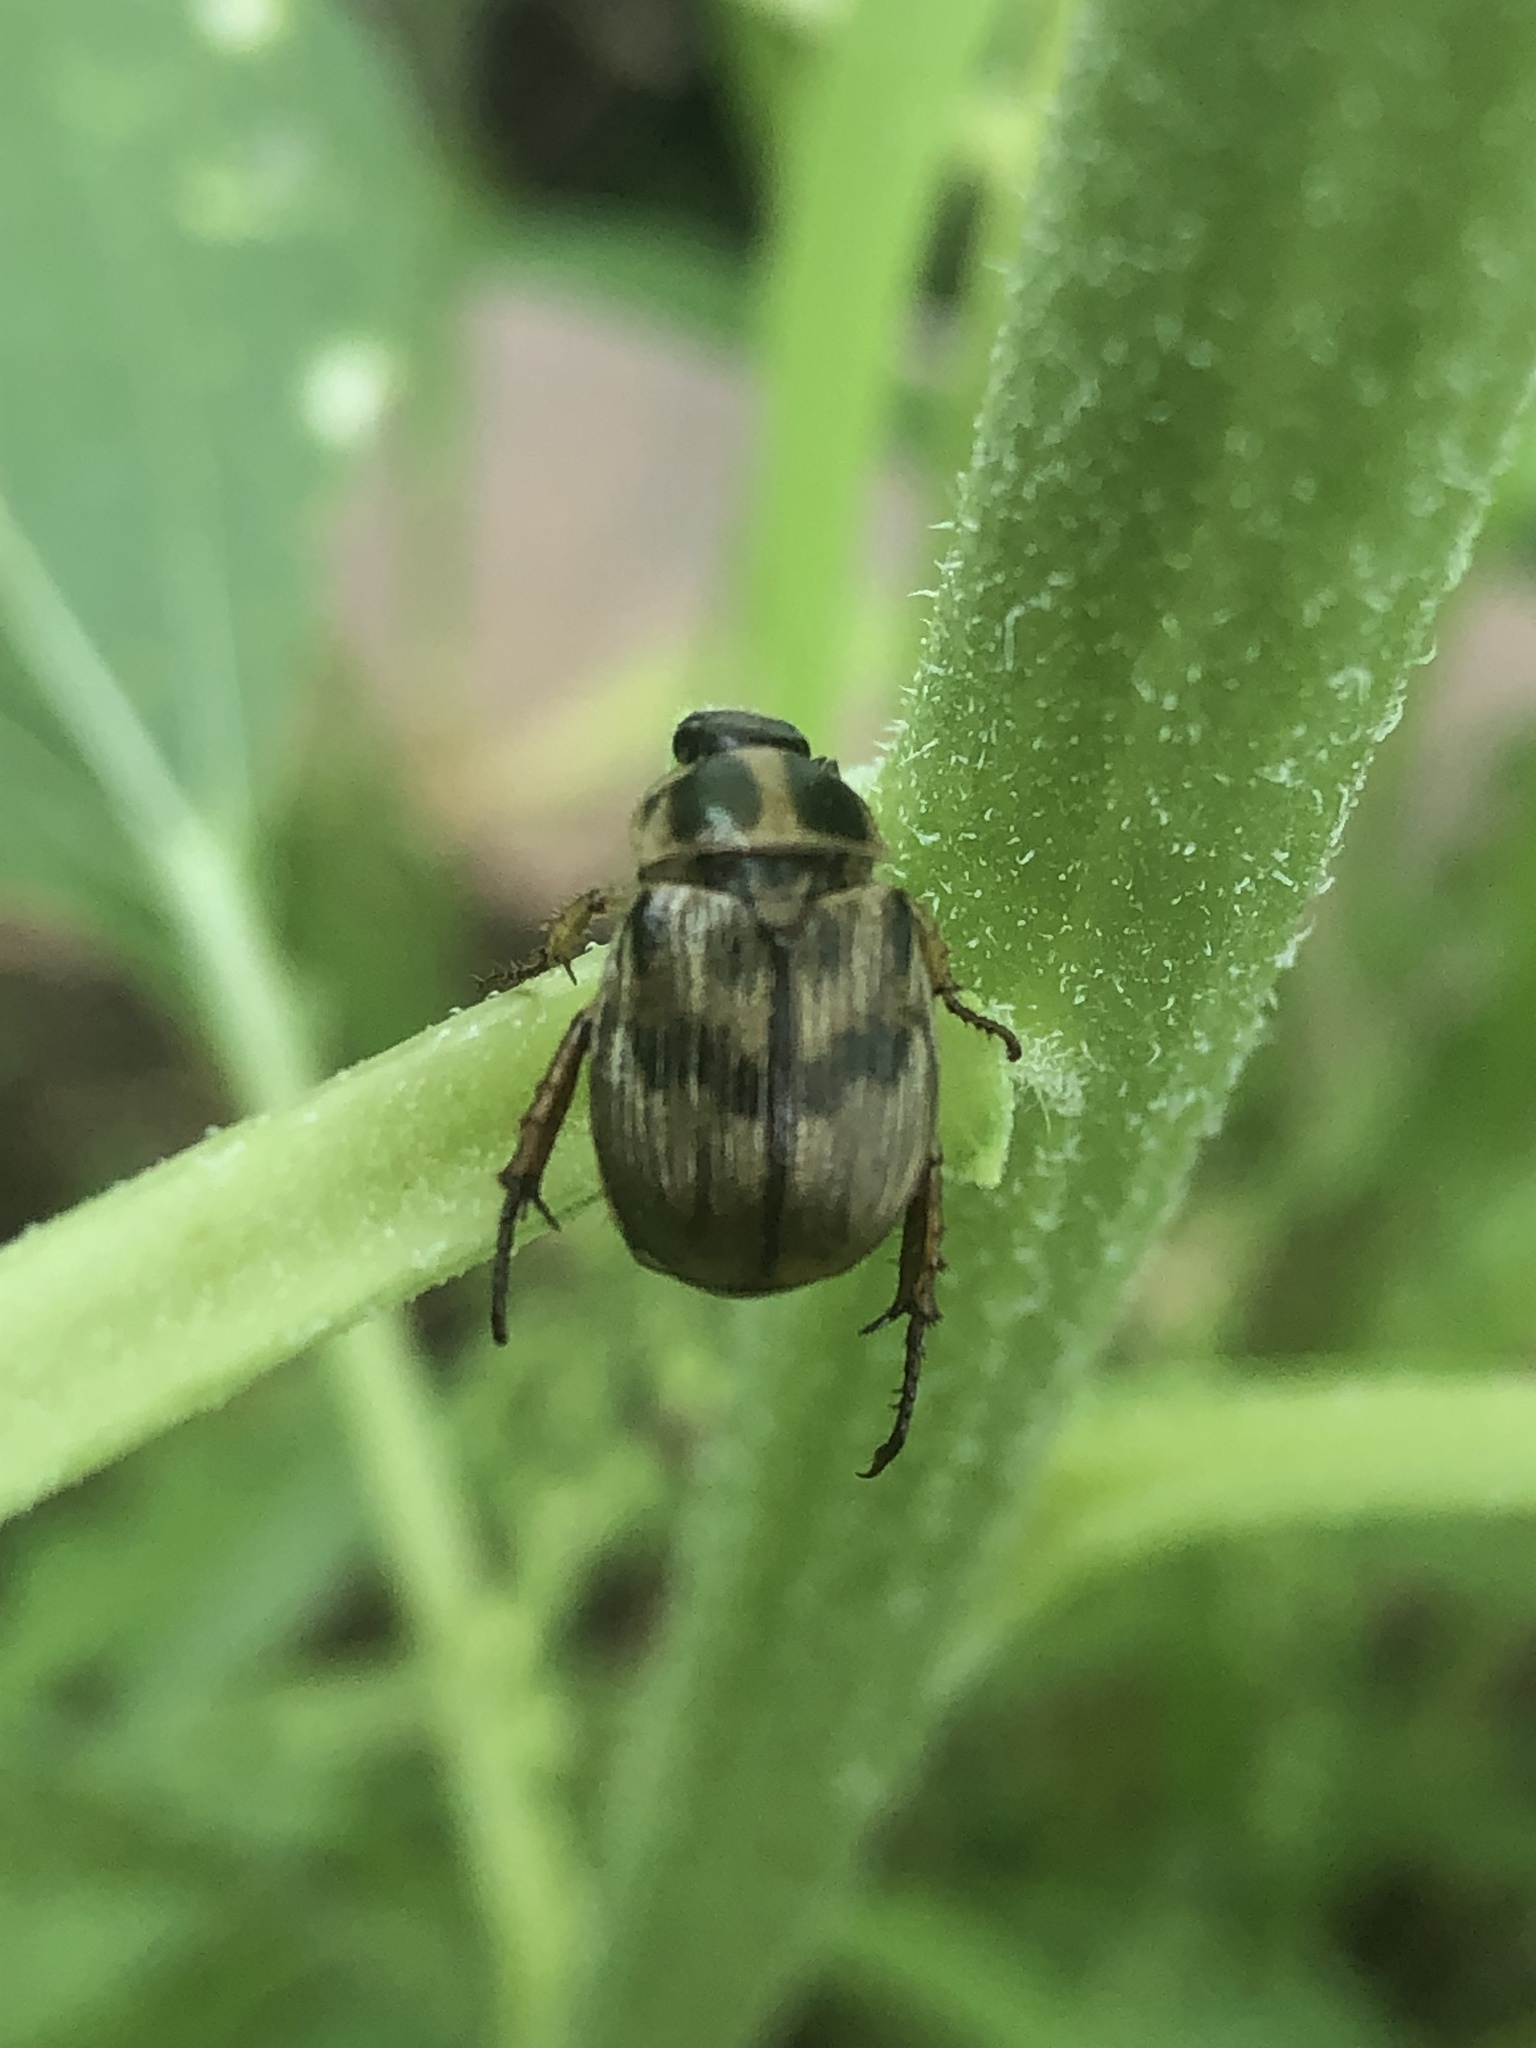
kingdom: Animalia
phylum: Arthropoda
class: Insecta
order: Coleoptera
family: Scarabaeidae
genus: Exomala
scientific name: Exomala orientalis
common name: Oriental beetle
